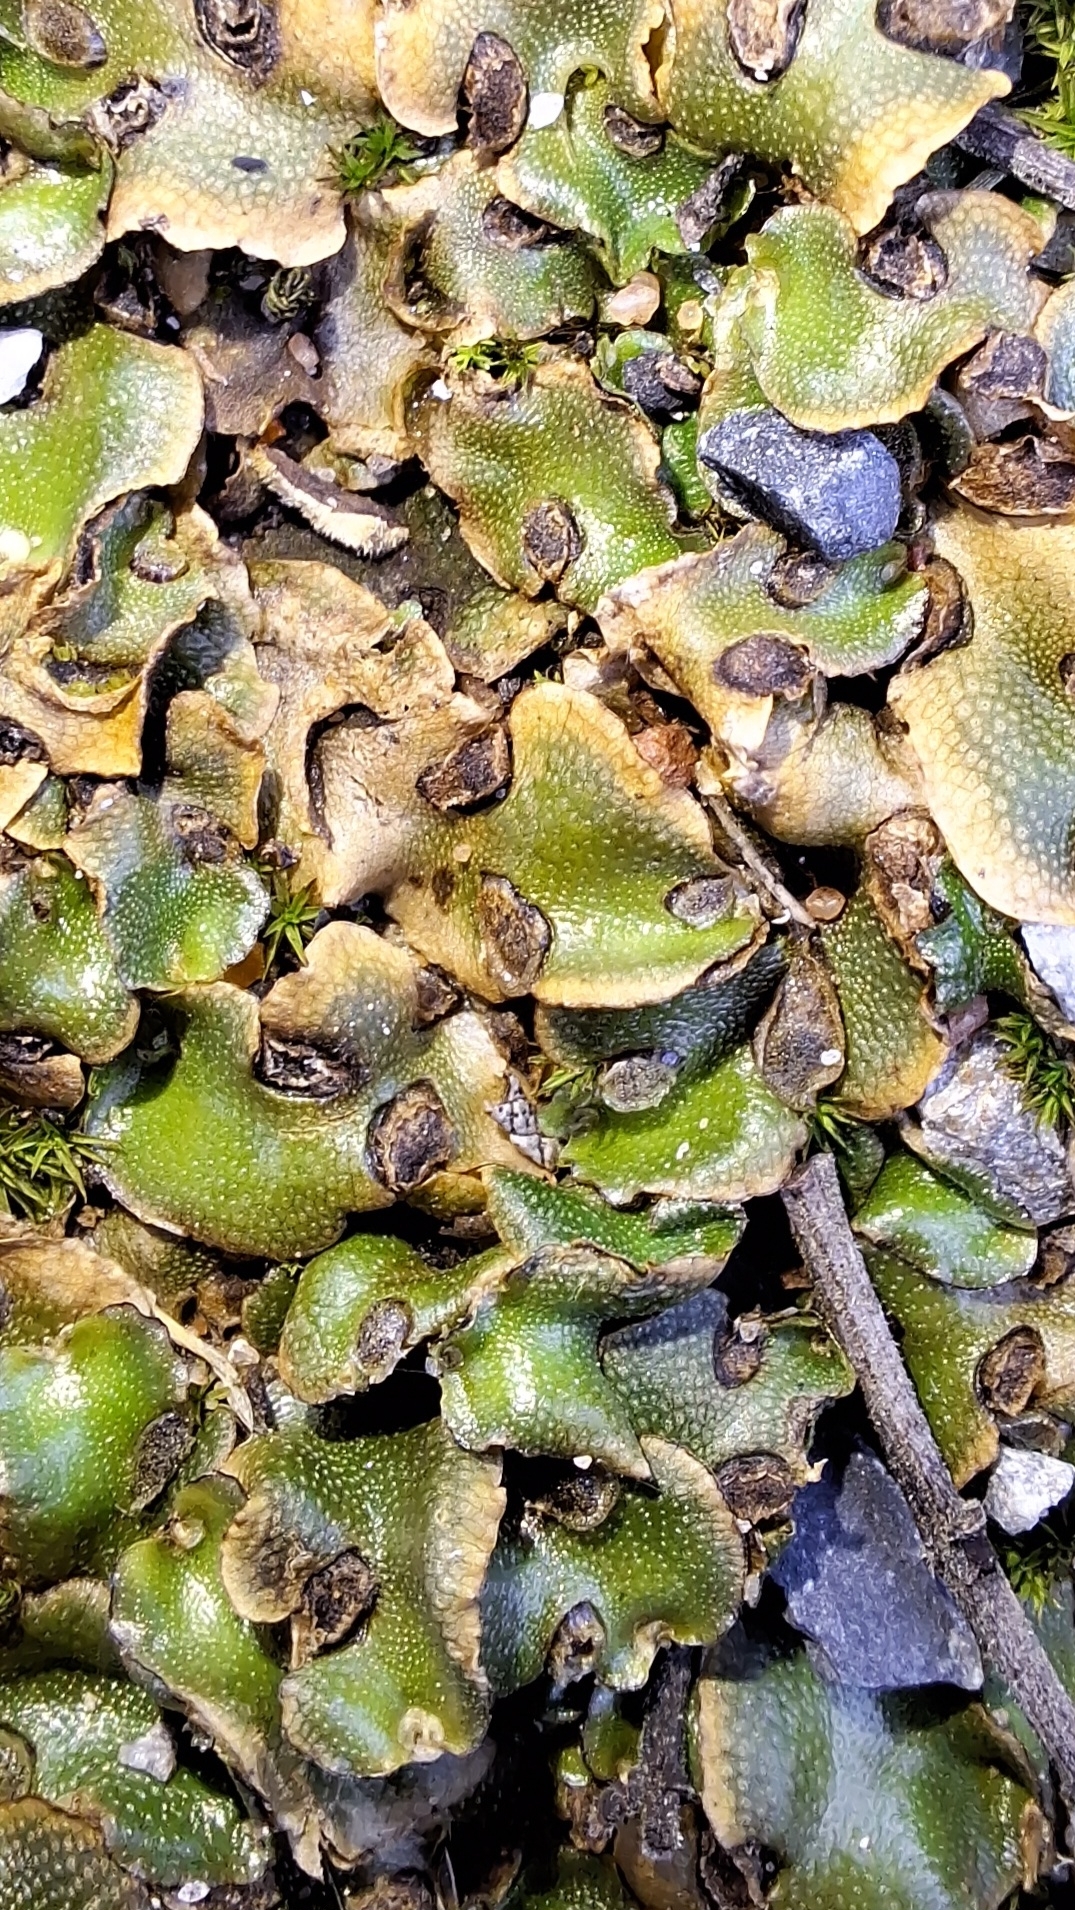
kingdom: Plantae
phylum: Marchantiophyta
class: Marchantiopsida
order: Lunulariales
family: Lunulariaceae
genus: Lunularia
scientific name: Lunularia cruciata
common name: Crescent-cup liverwort
